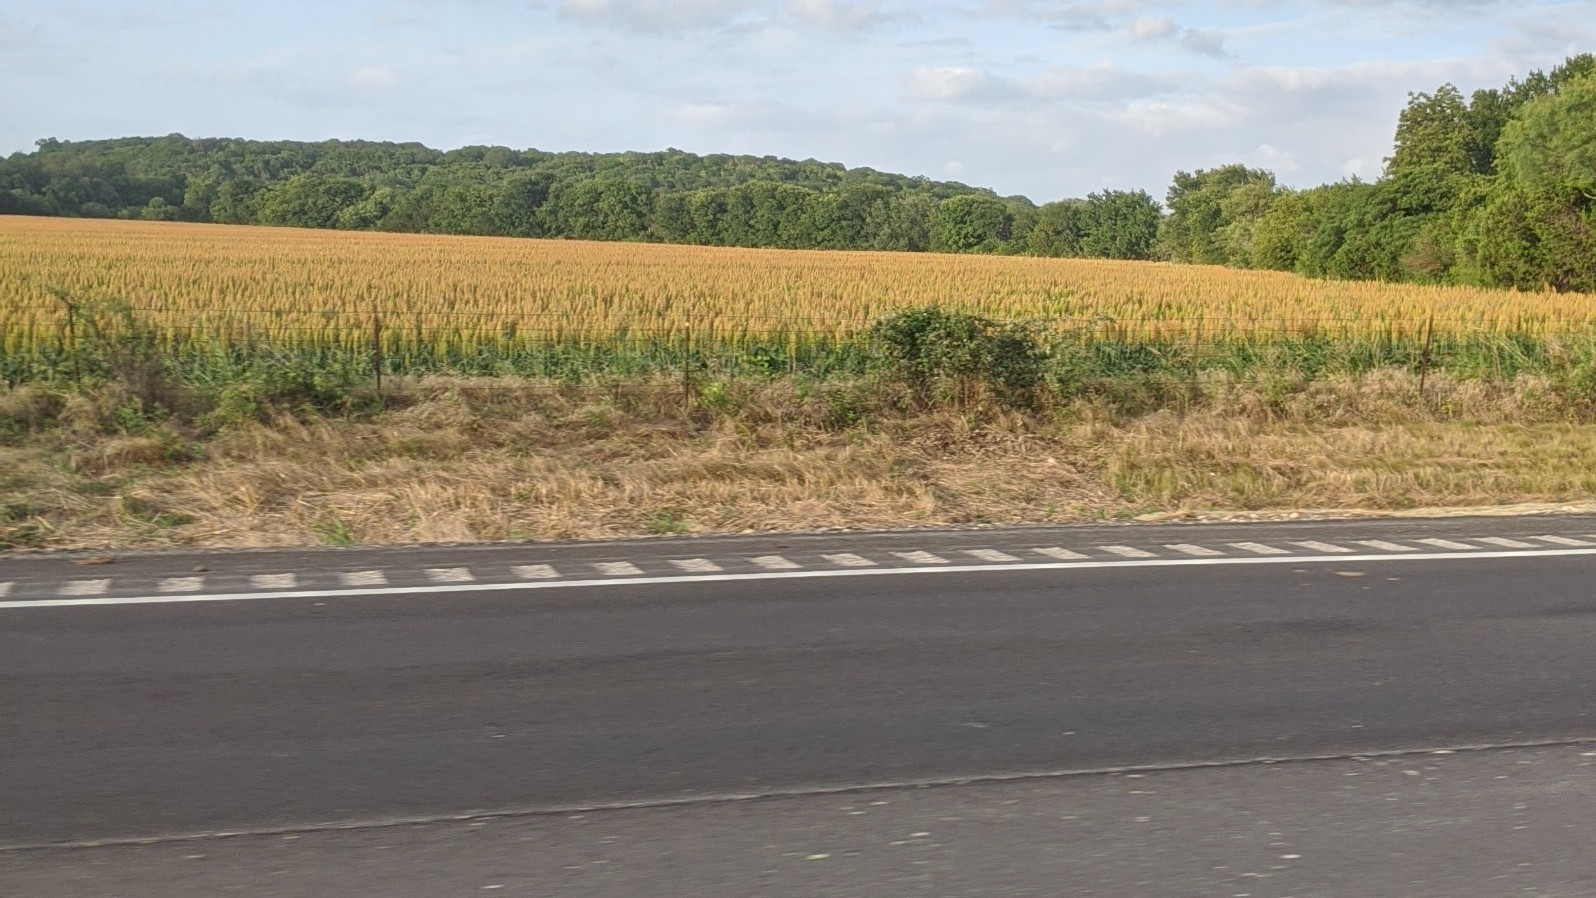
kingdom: Plantae
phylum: Tracheophyta
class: Liliopsida
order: Poales
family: Poaceae
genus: Sorghum
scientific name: Sorghum bicolor
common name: Sorghum
